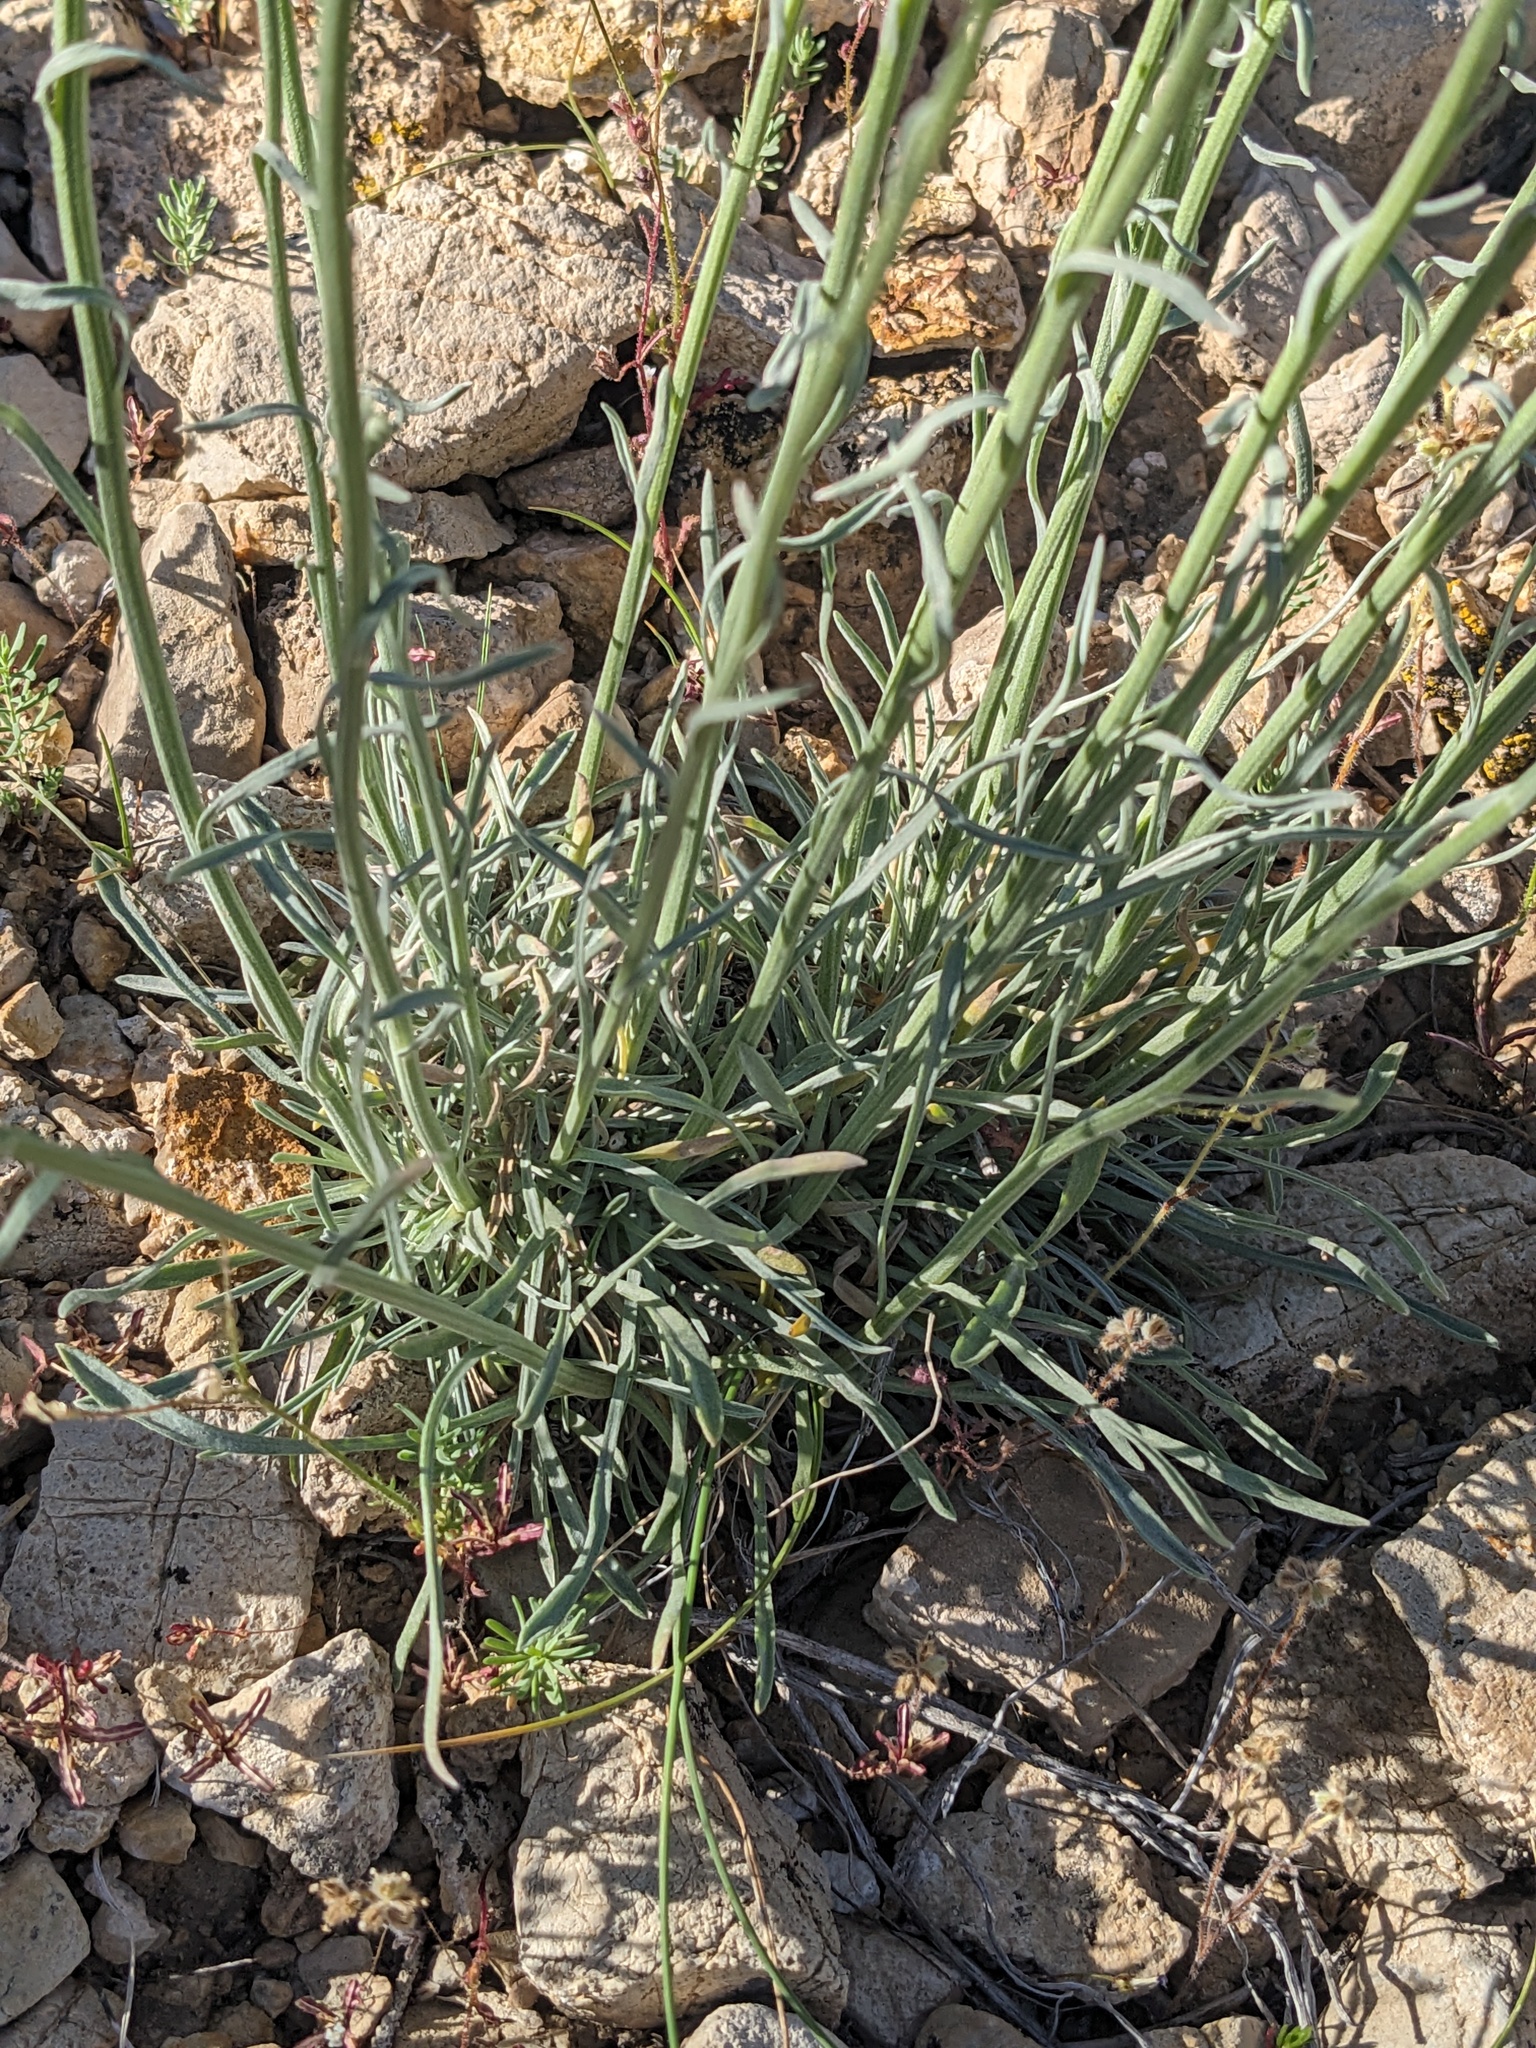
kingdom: Plantae
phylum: Tracheophyta
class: Magnoliopsida
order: Asterales
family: Asteraceae
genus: Erigeron
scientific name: Erigeron argentatus
